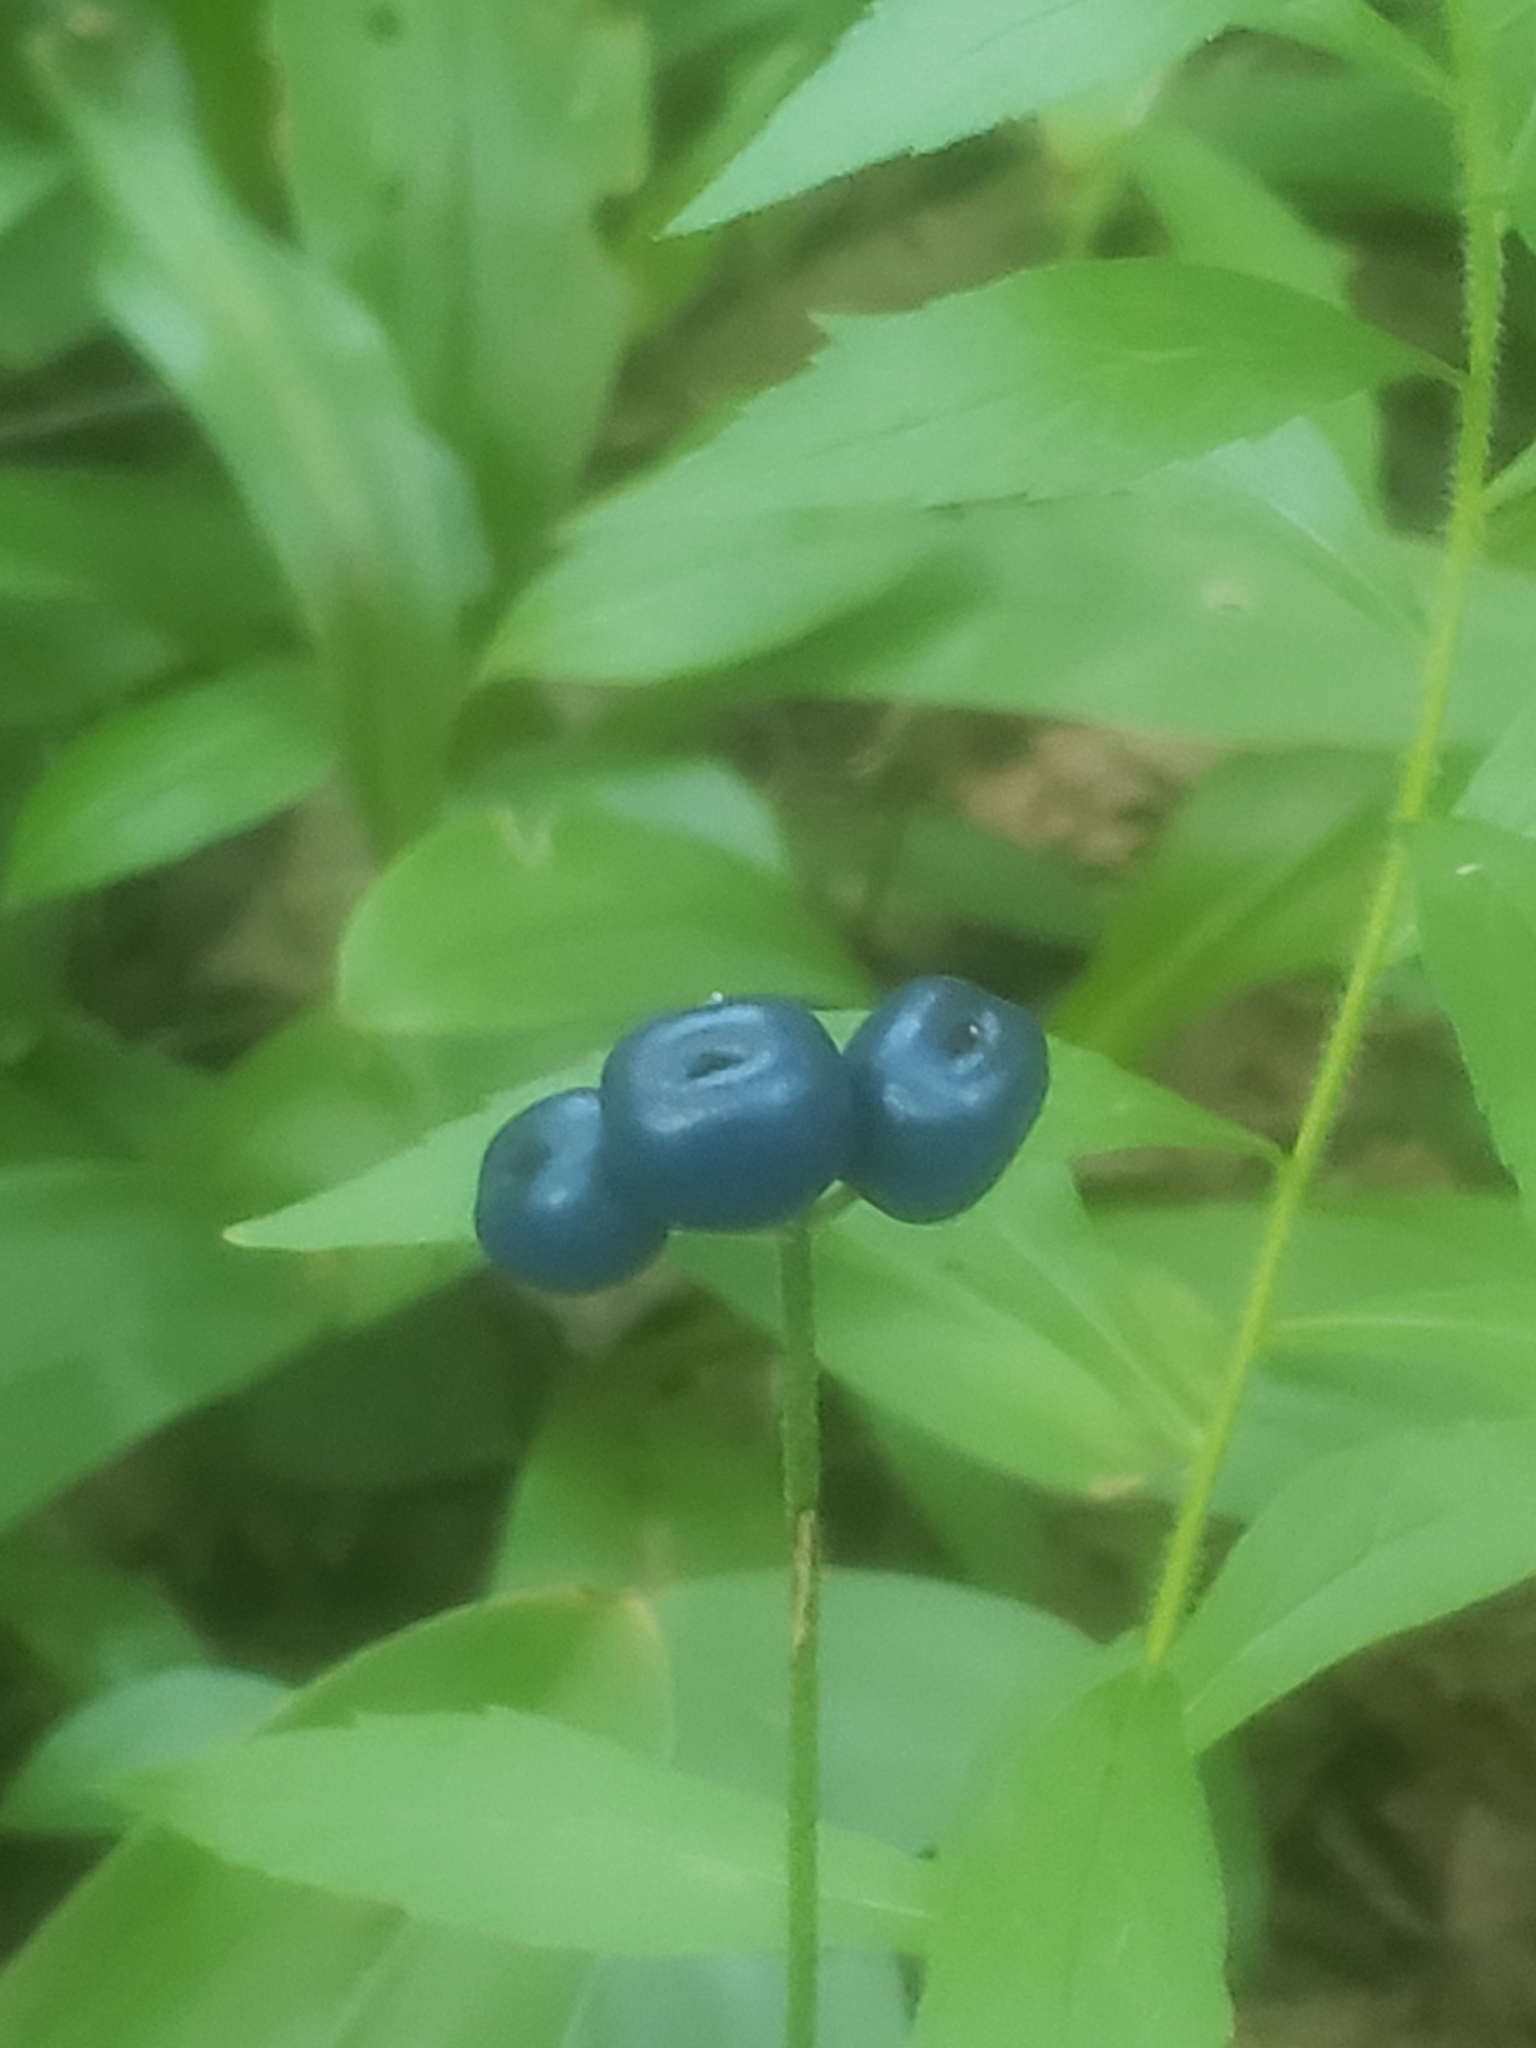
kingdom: Plantae
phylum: Tracheophyta
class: Liliopsida
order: Liliales
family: Liliaceae
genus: Clintonia
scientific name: Clintonia borealis
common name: Yellow clintonia
